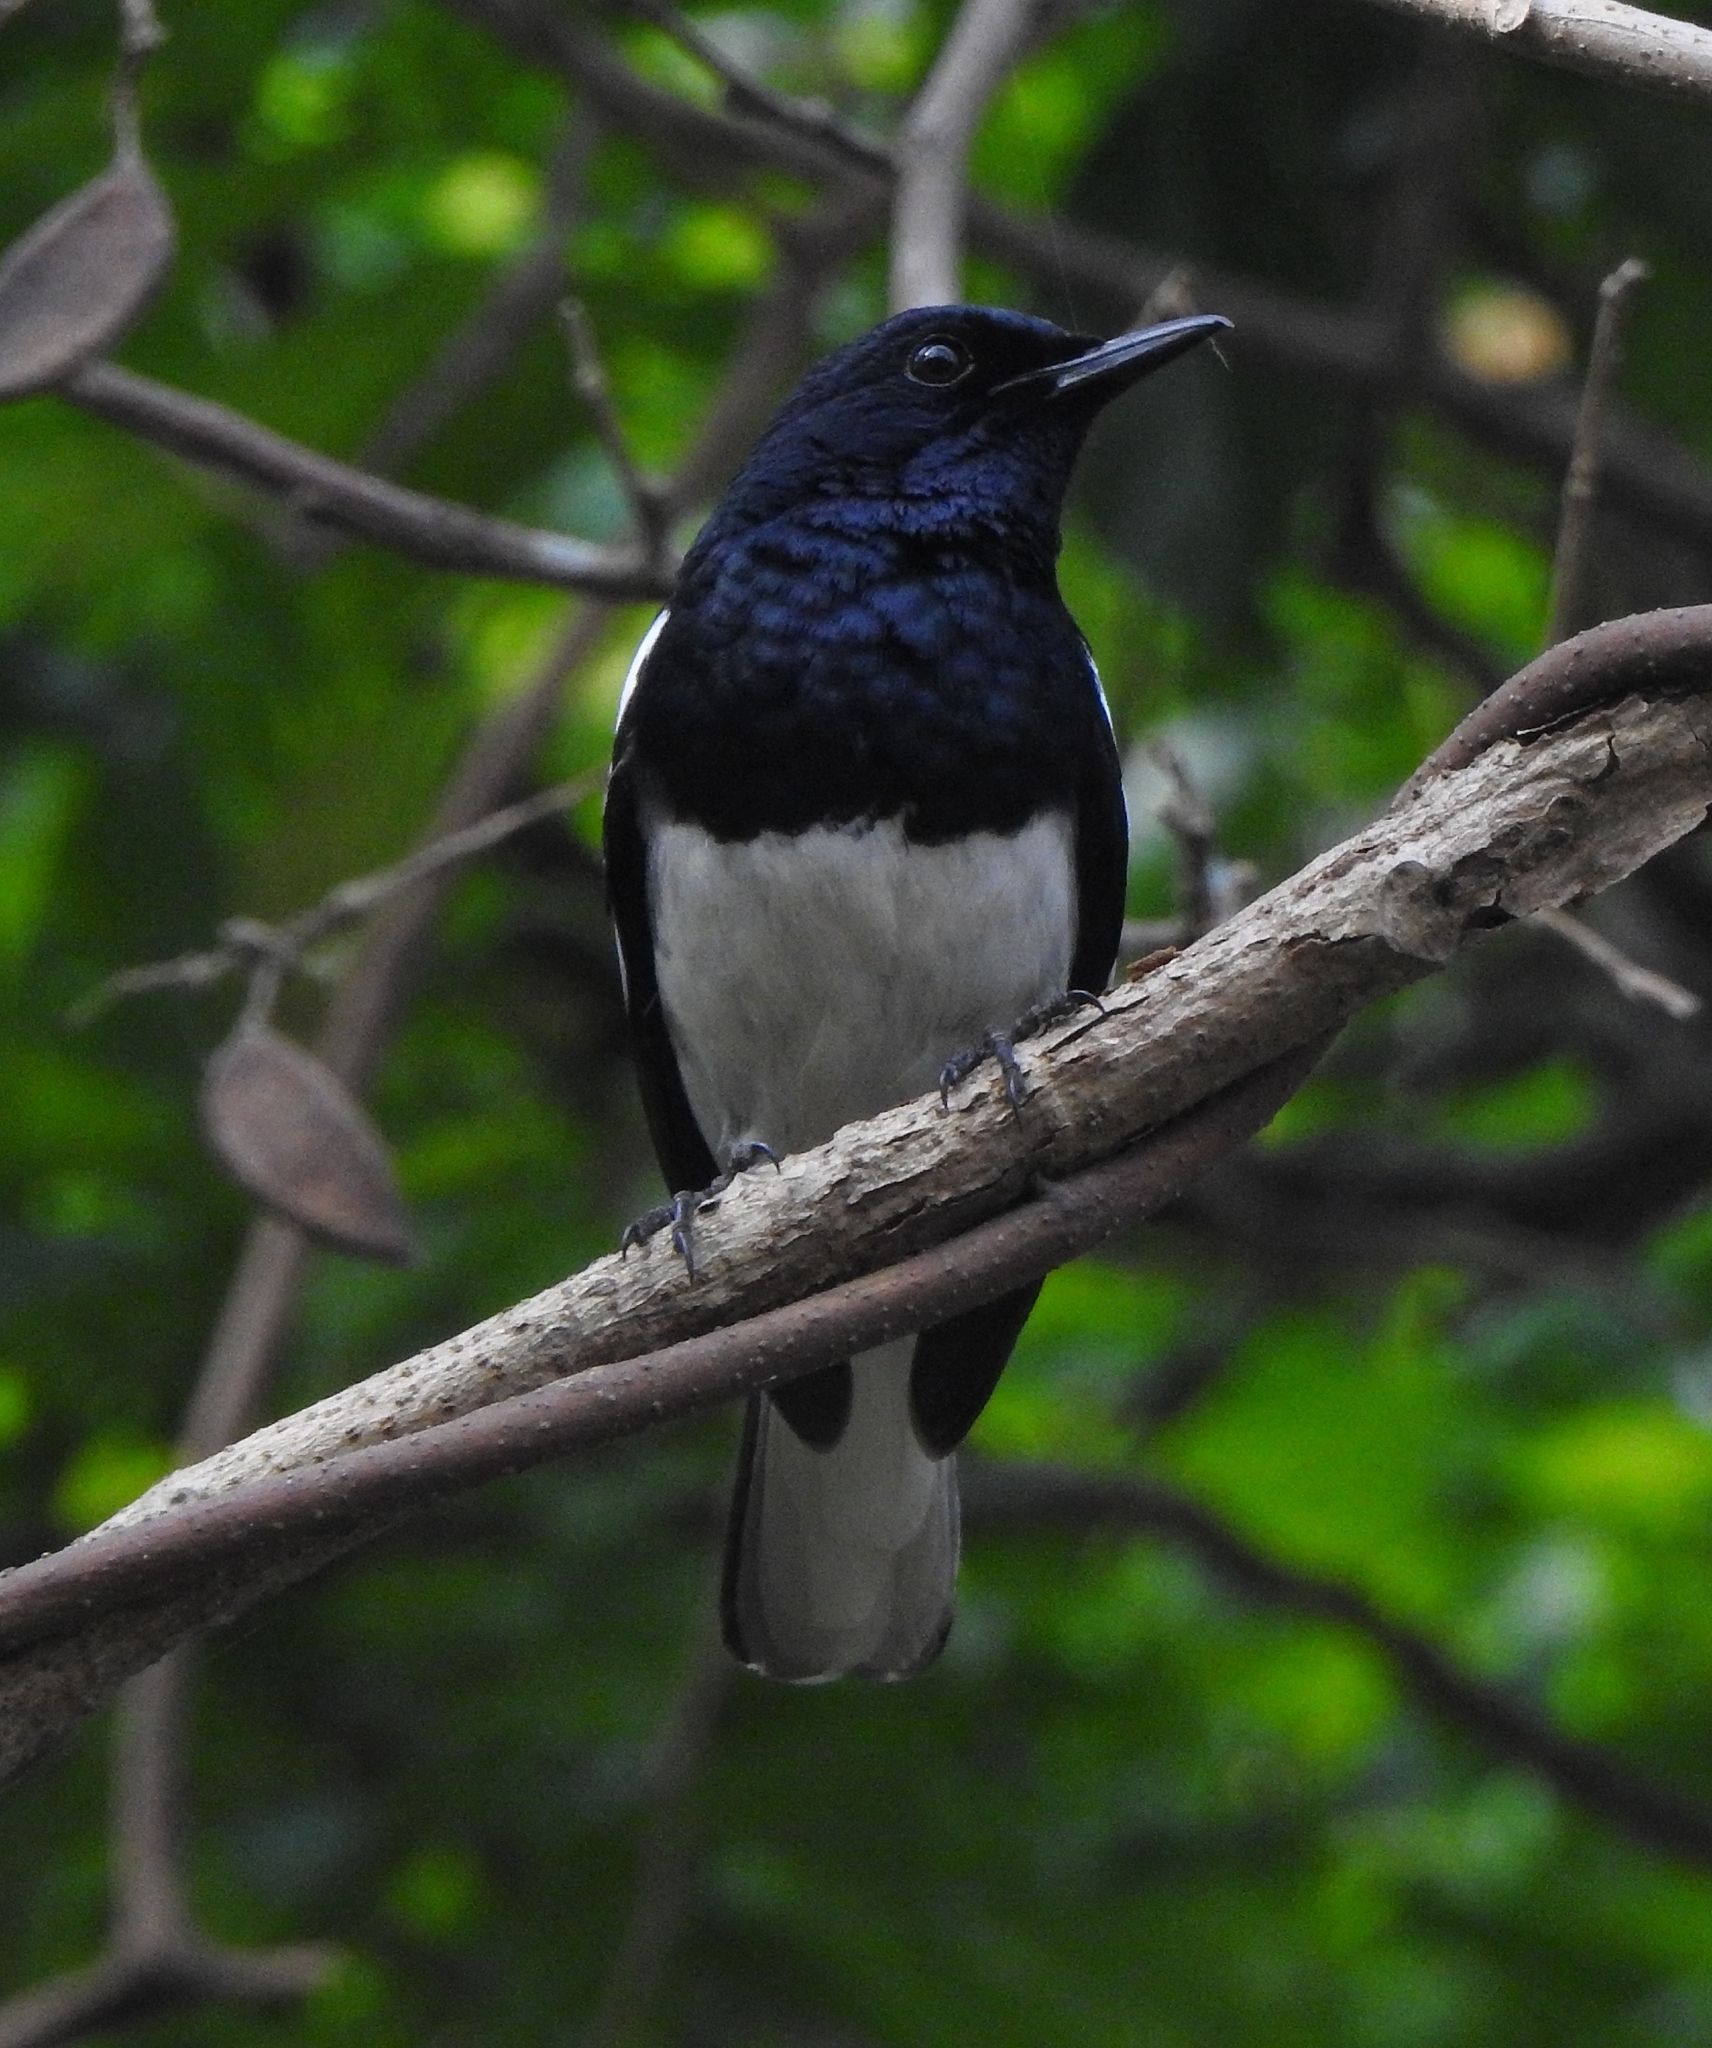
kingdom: Animalia
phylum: Chordata
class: Aves
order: Passeriformes
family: Muscicapidae
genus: Copsychus
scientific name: Copsychus saularis
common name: Oriental magpie-robin
